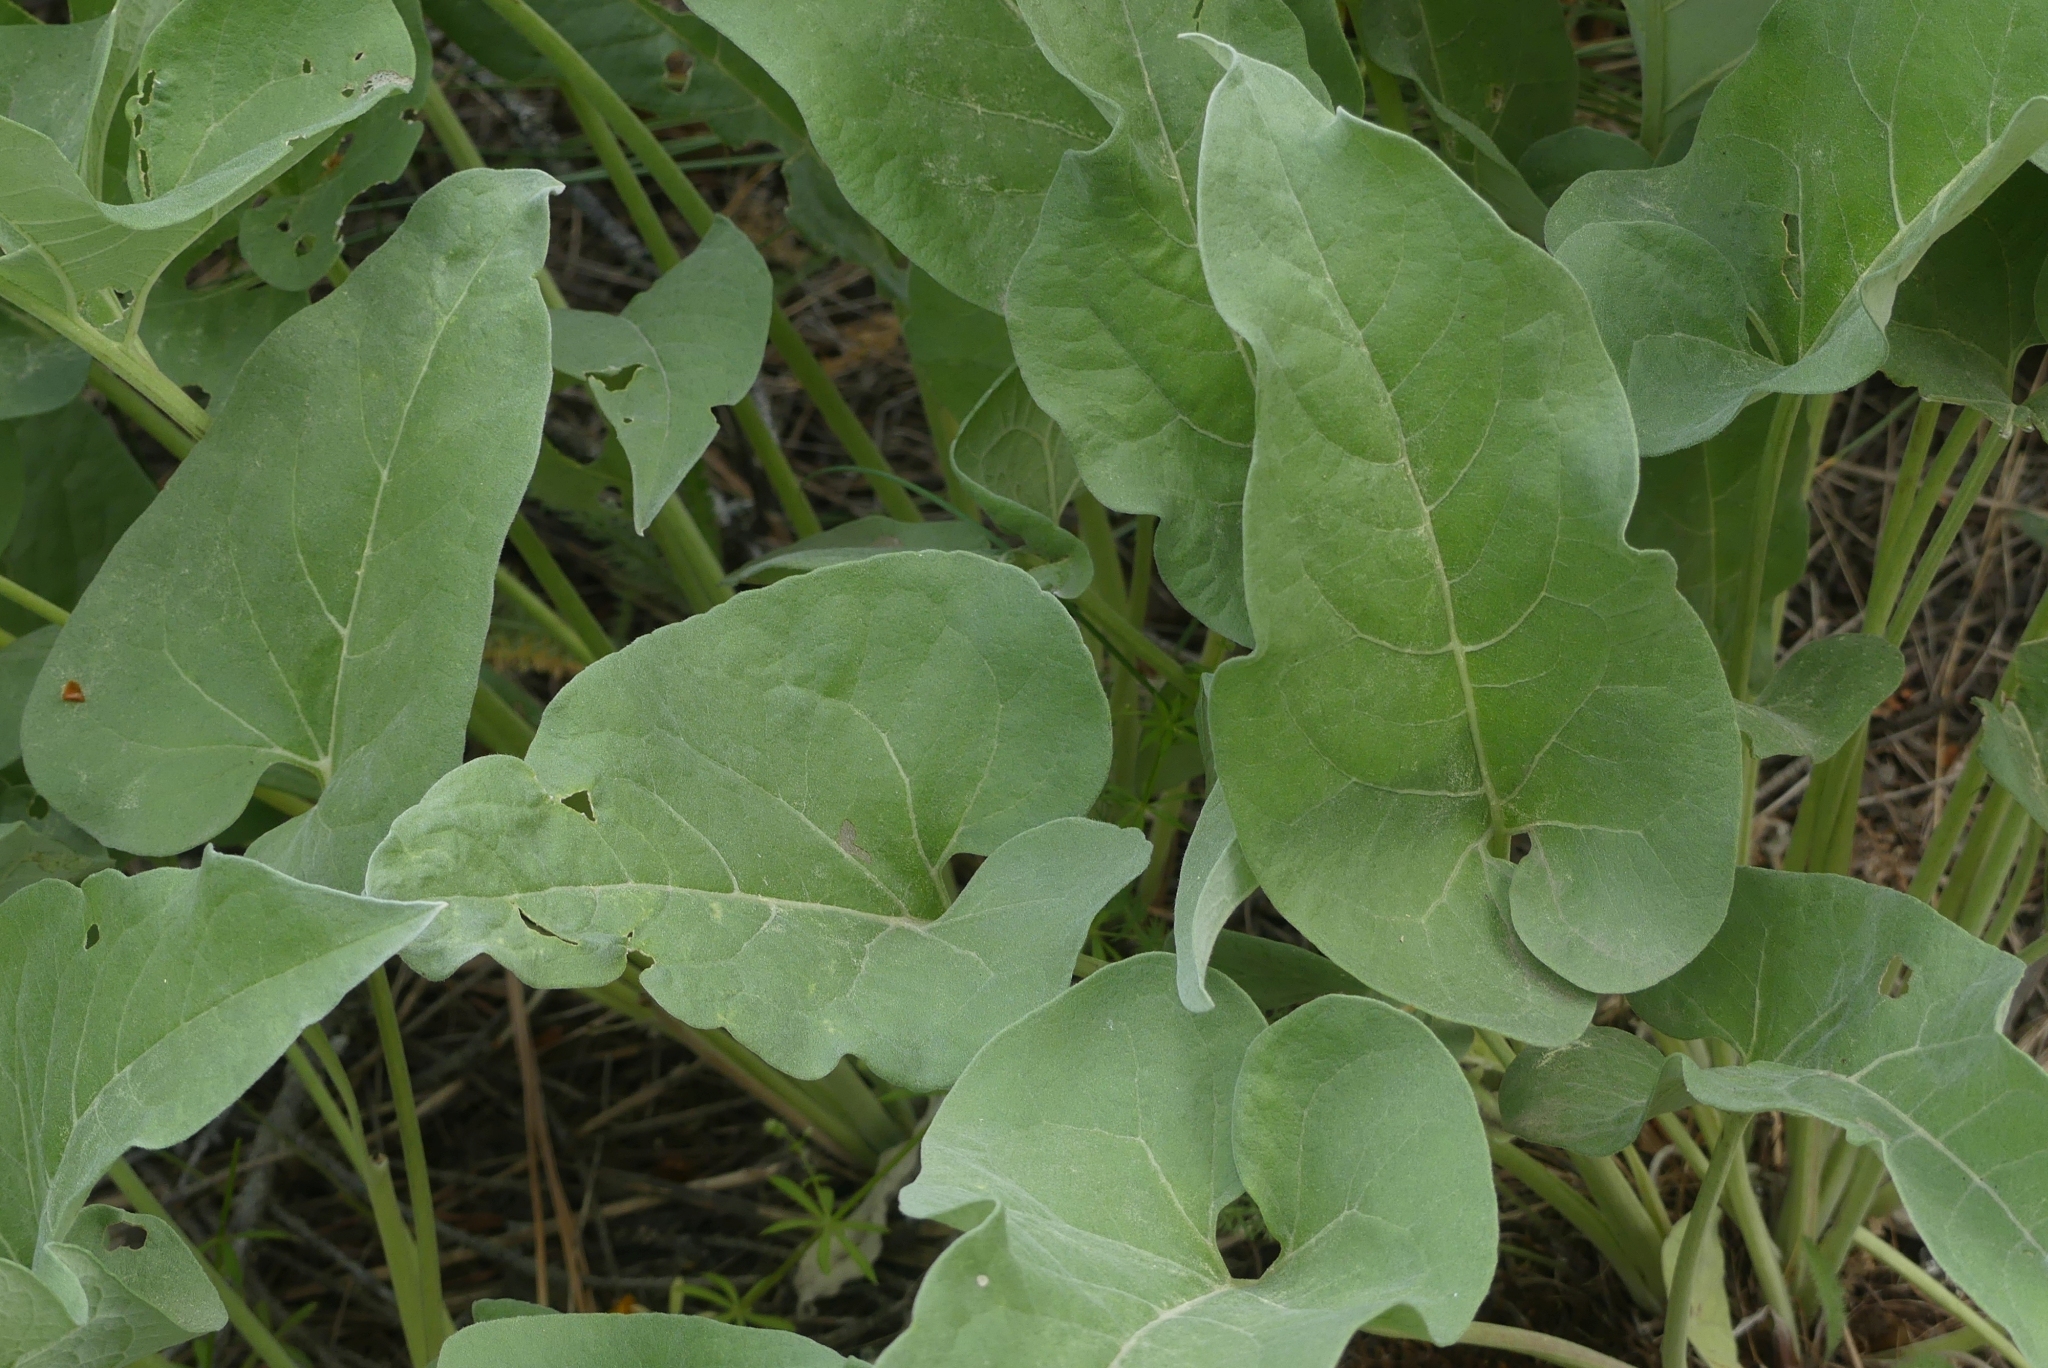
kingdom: Plantae
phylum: Tracheophyta
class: Magnoliopsida
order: Asterales
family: Asteraceae
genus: Wyethia
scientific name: Wyethia sagittata
